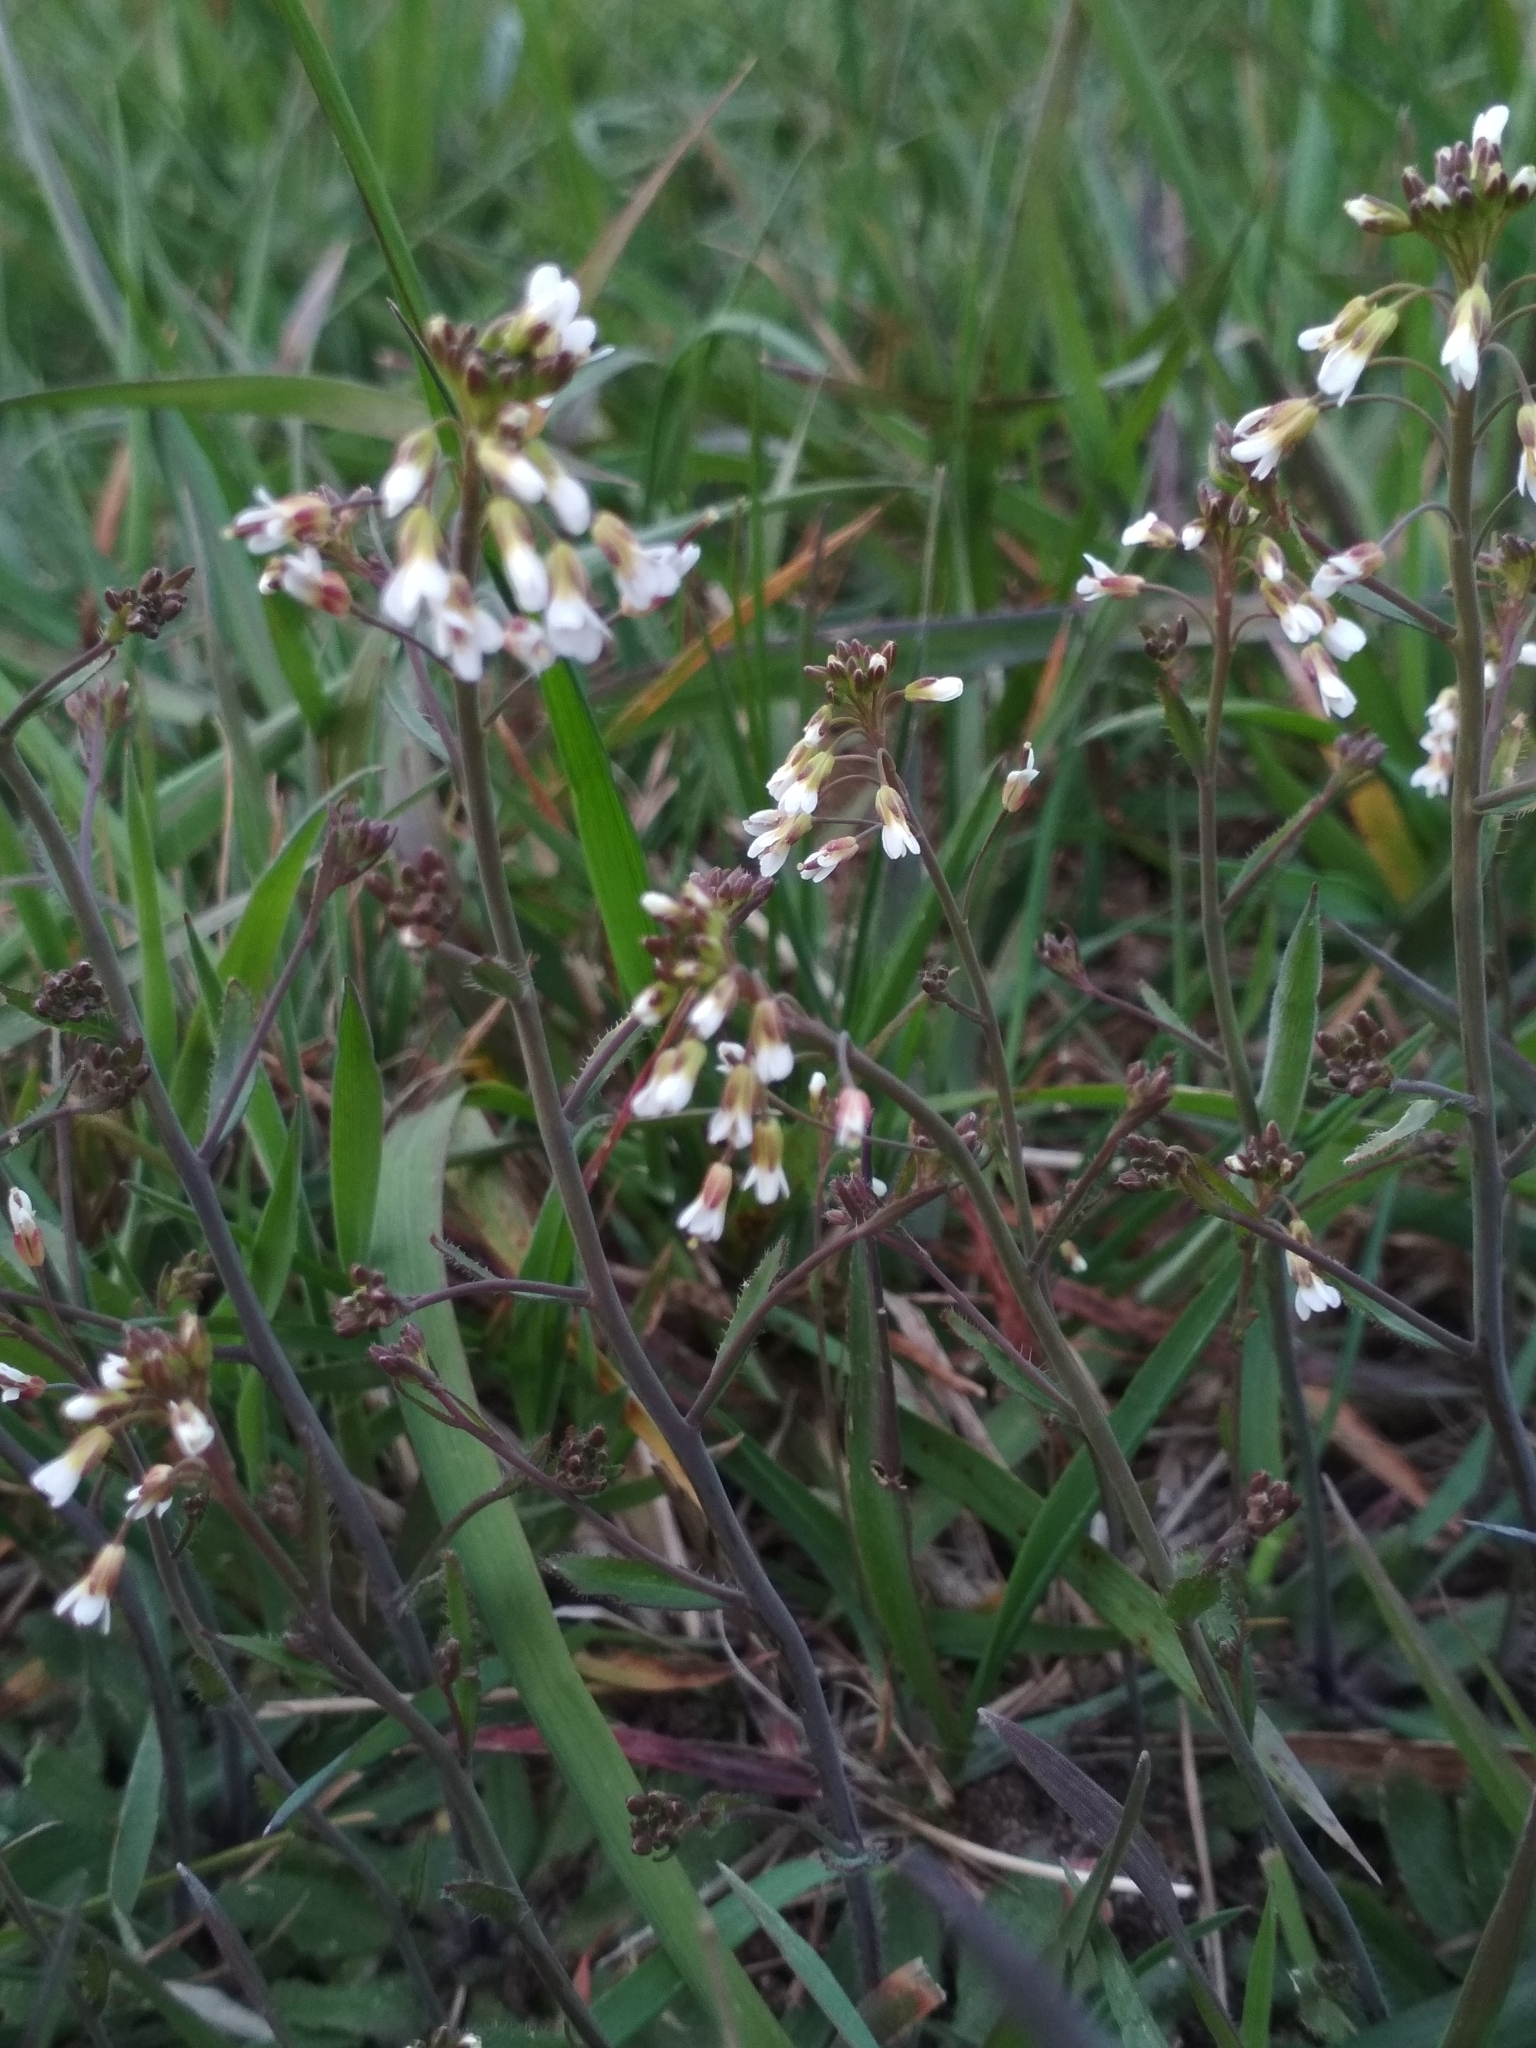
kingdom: Plantae
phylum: Tracheophyta
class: Magnoliopsida
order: Brassicales
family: Brassicaceae
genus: Arabidopsis
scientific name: Arabidopsis thaliana
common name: Thale cress
